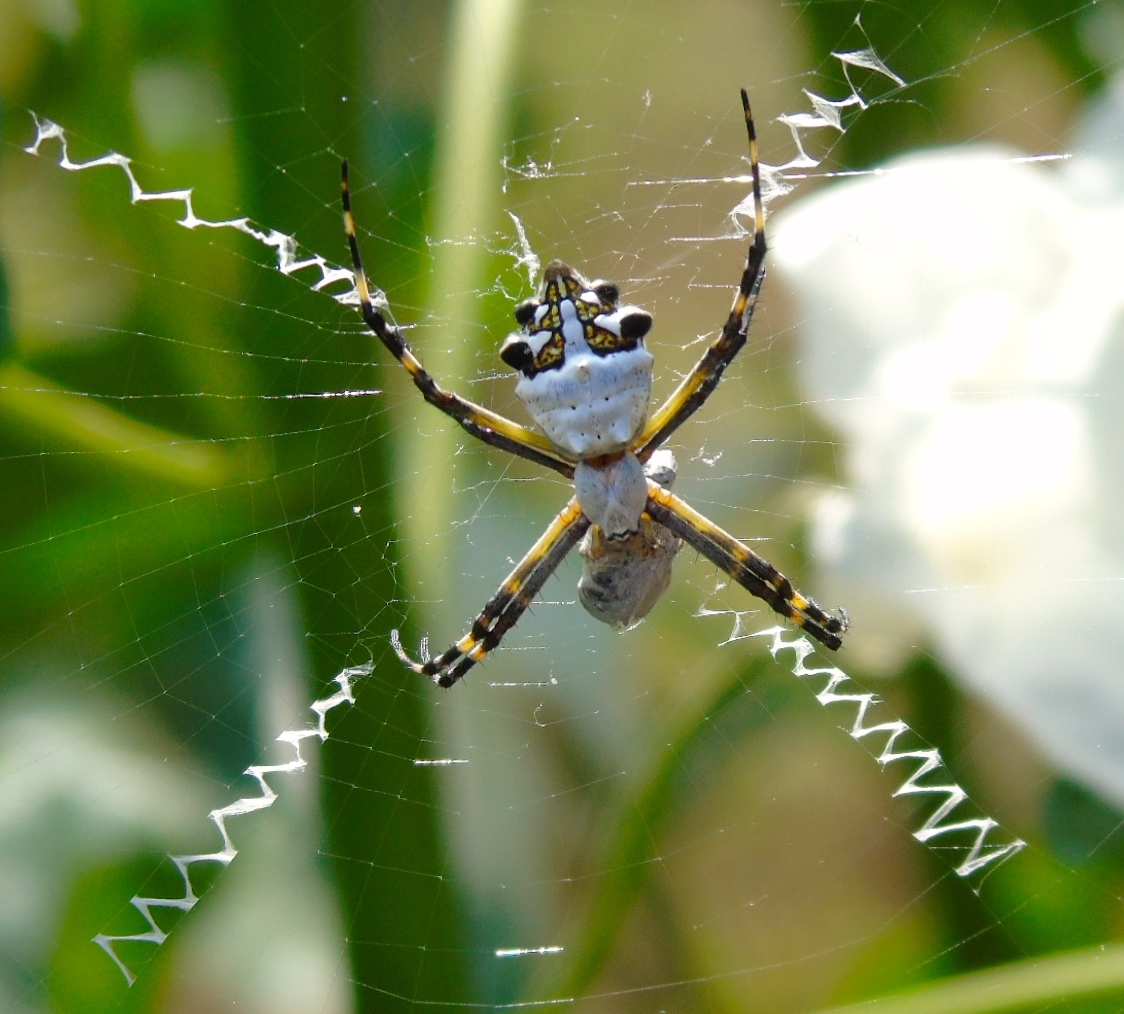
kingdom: Animalia
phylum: Arthropoda
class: Arachnida
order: Araneae
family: Araneidae
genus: Argiope
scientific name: Argiope argentata
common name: Orb weavers
